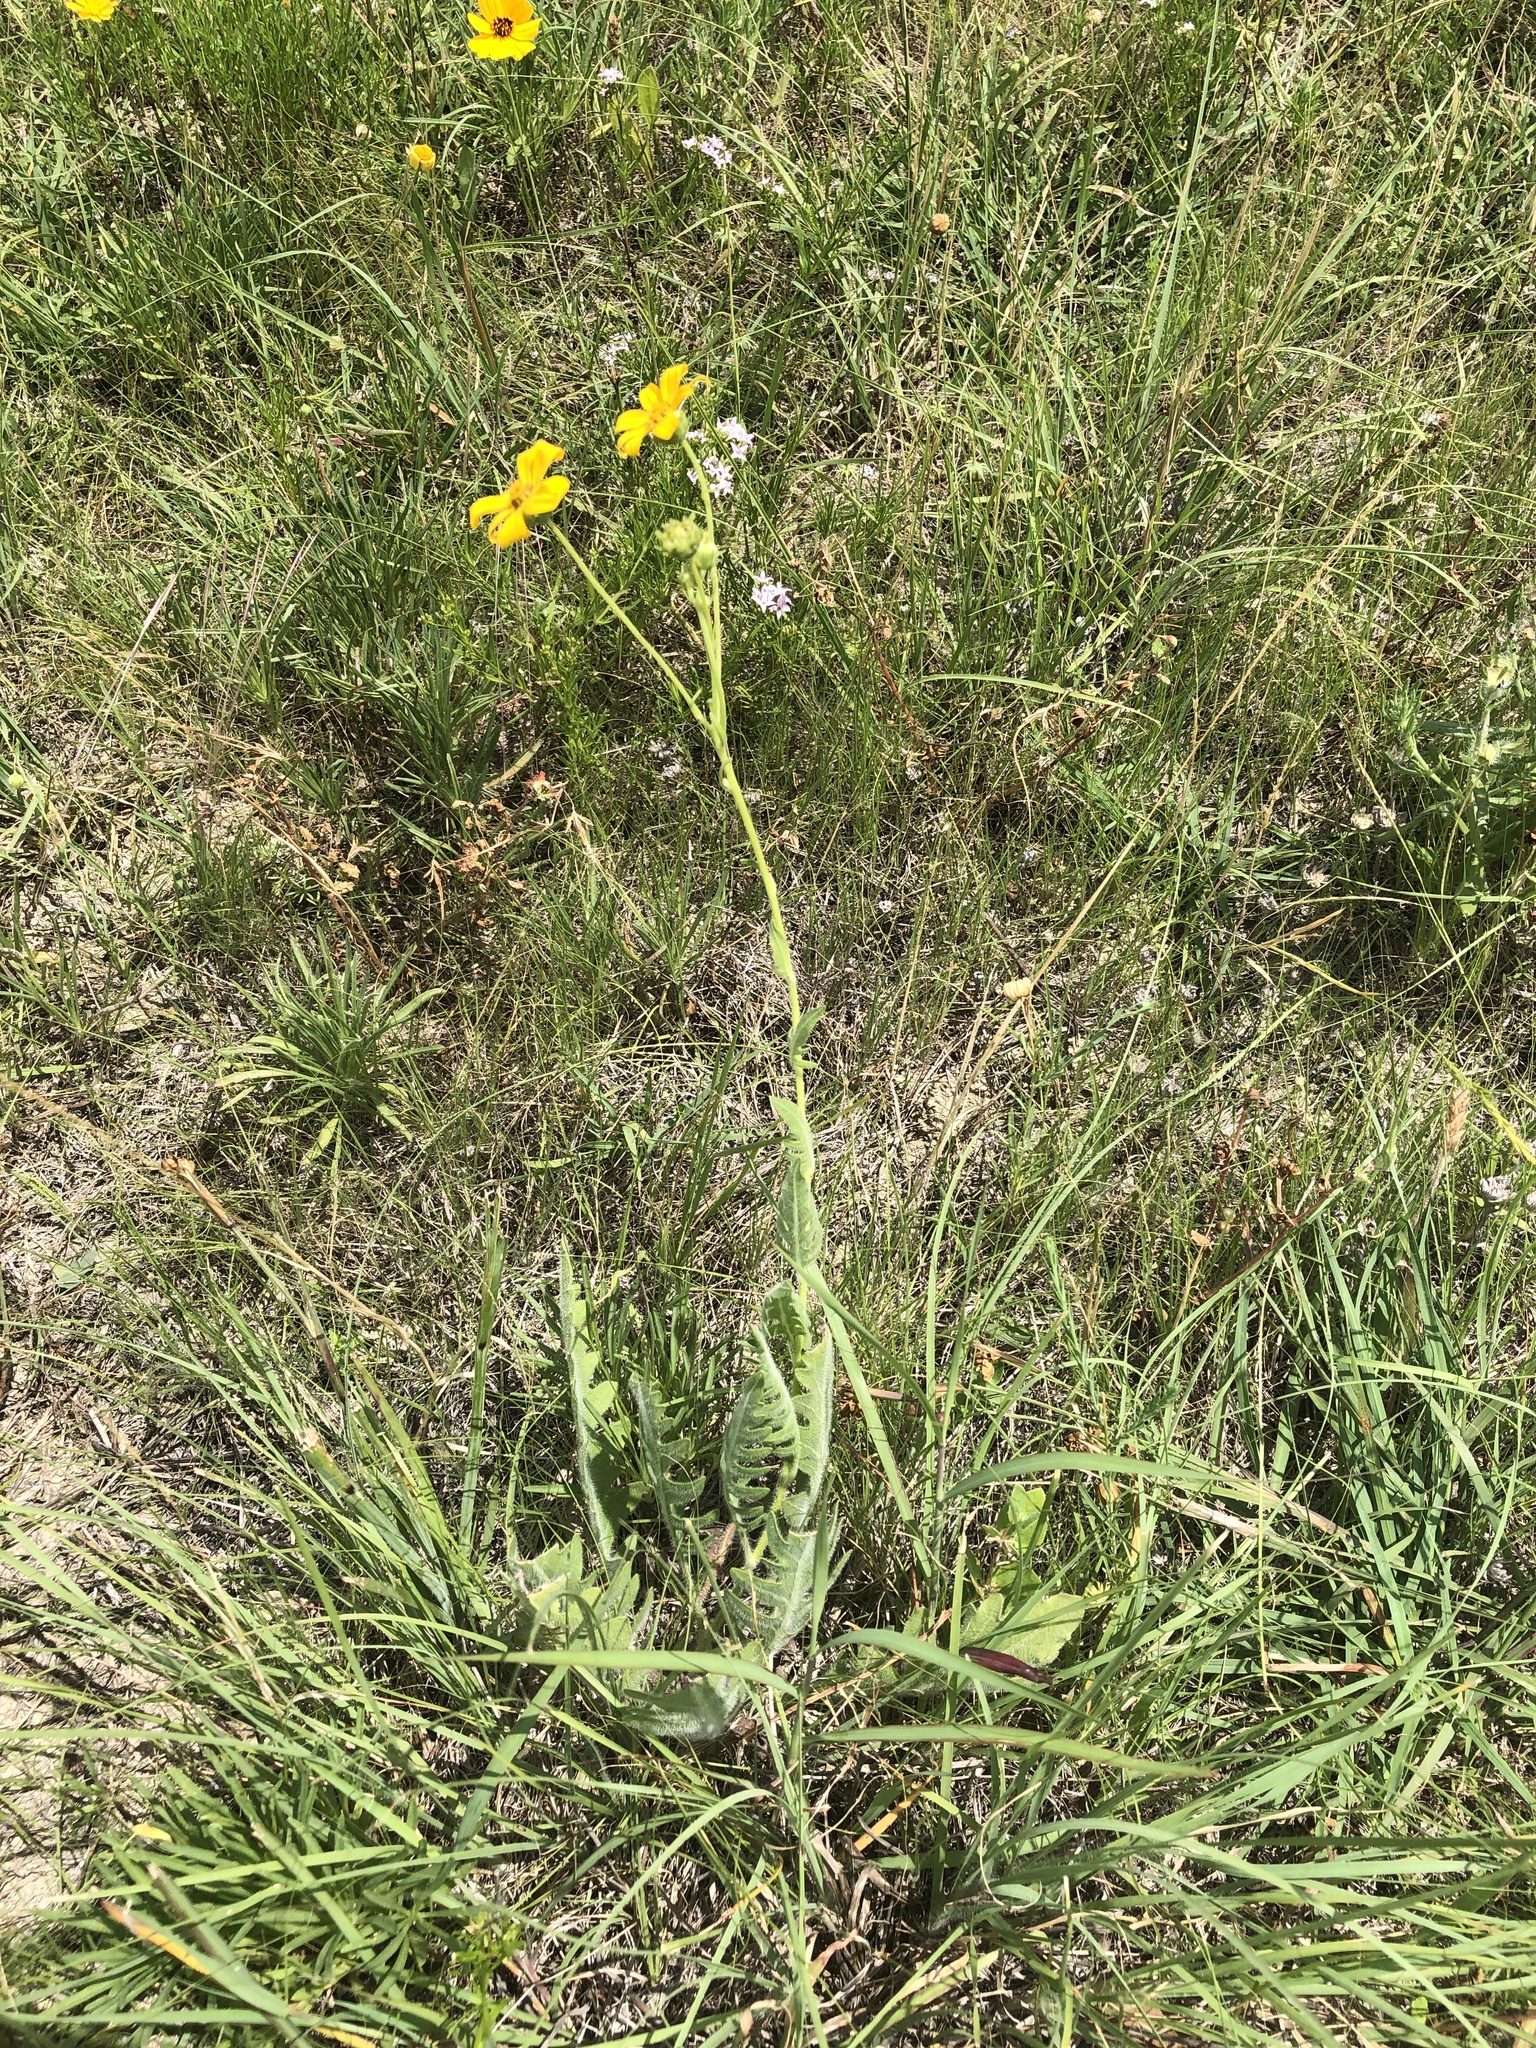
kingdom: Plantae
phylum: Tracheophyta
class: Magnoliopsida
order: Asterales
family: Asteraceae
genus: Engelmannia
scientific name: Engelmannia peristenia
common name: Engelmann's daisy
